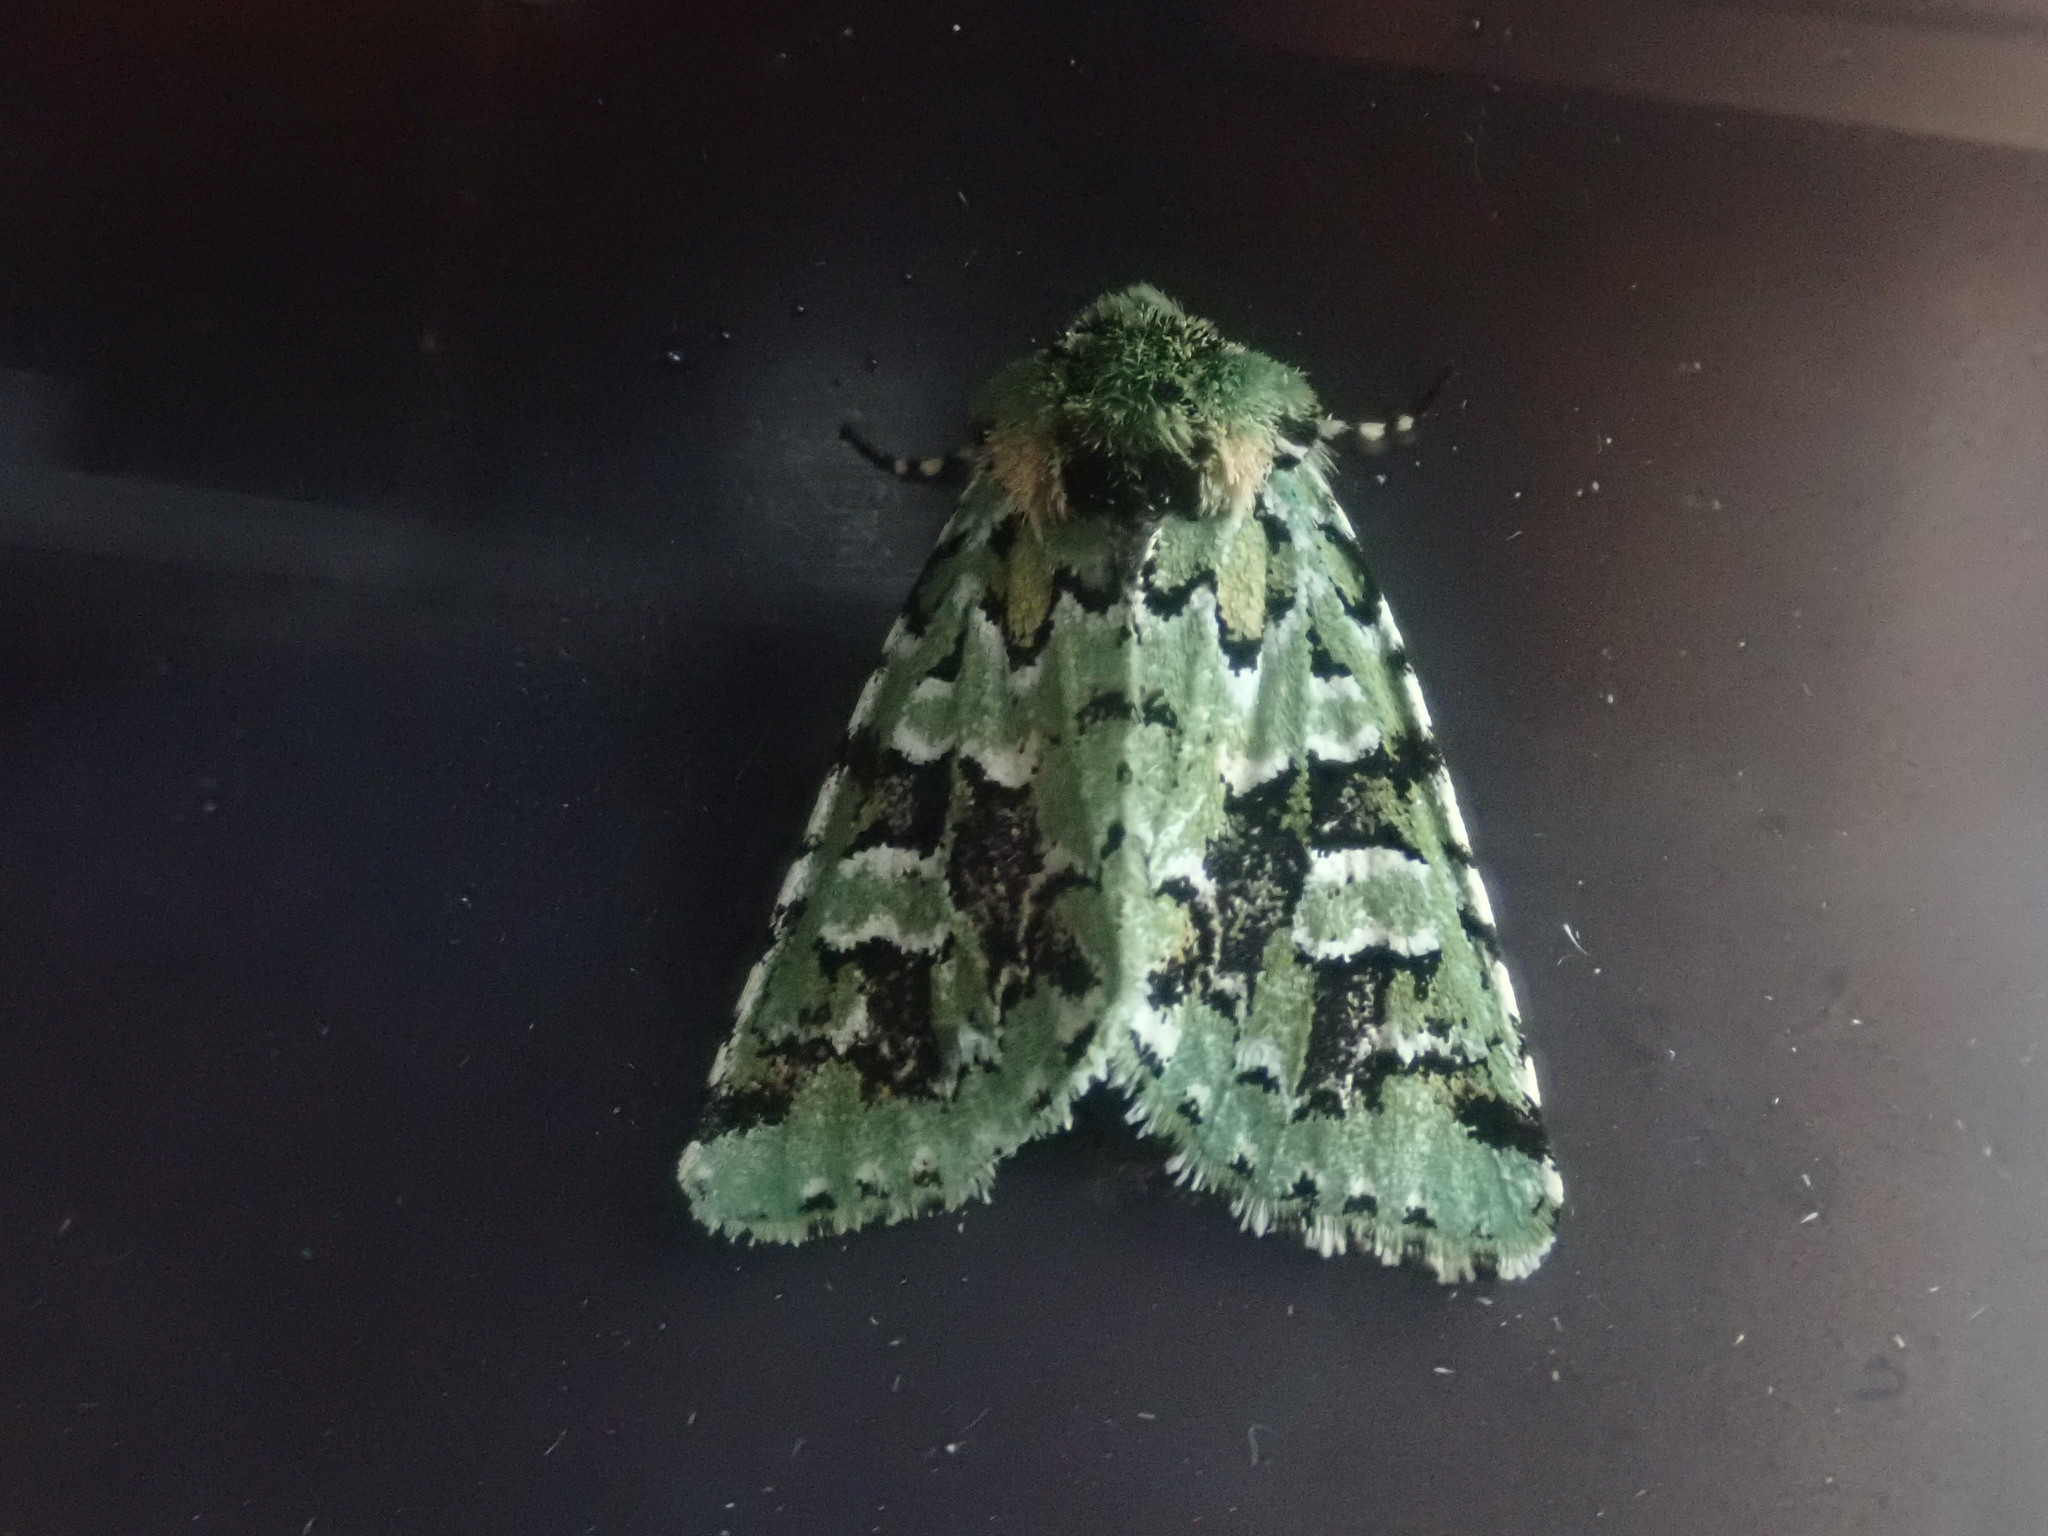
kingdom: Animalia
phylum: Arthropoda
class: Insecta
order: Lepidoptera
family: Noctuidae
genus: Feralia
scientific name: Feralia comstocki
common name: Comstock's sallow
